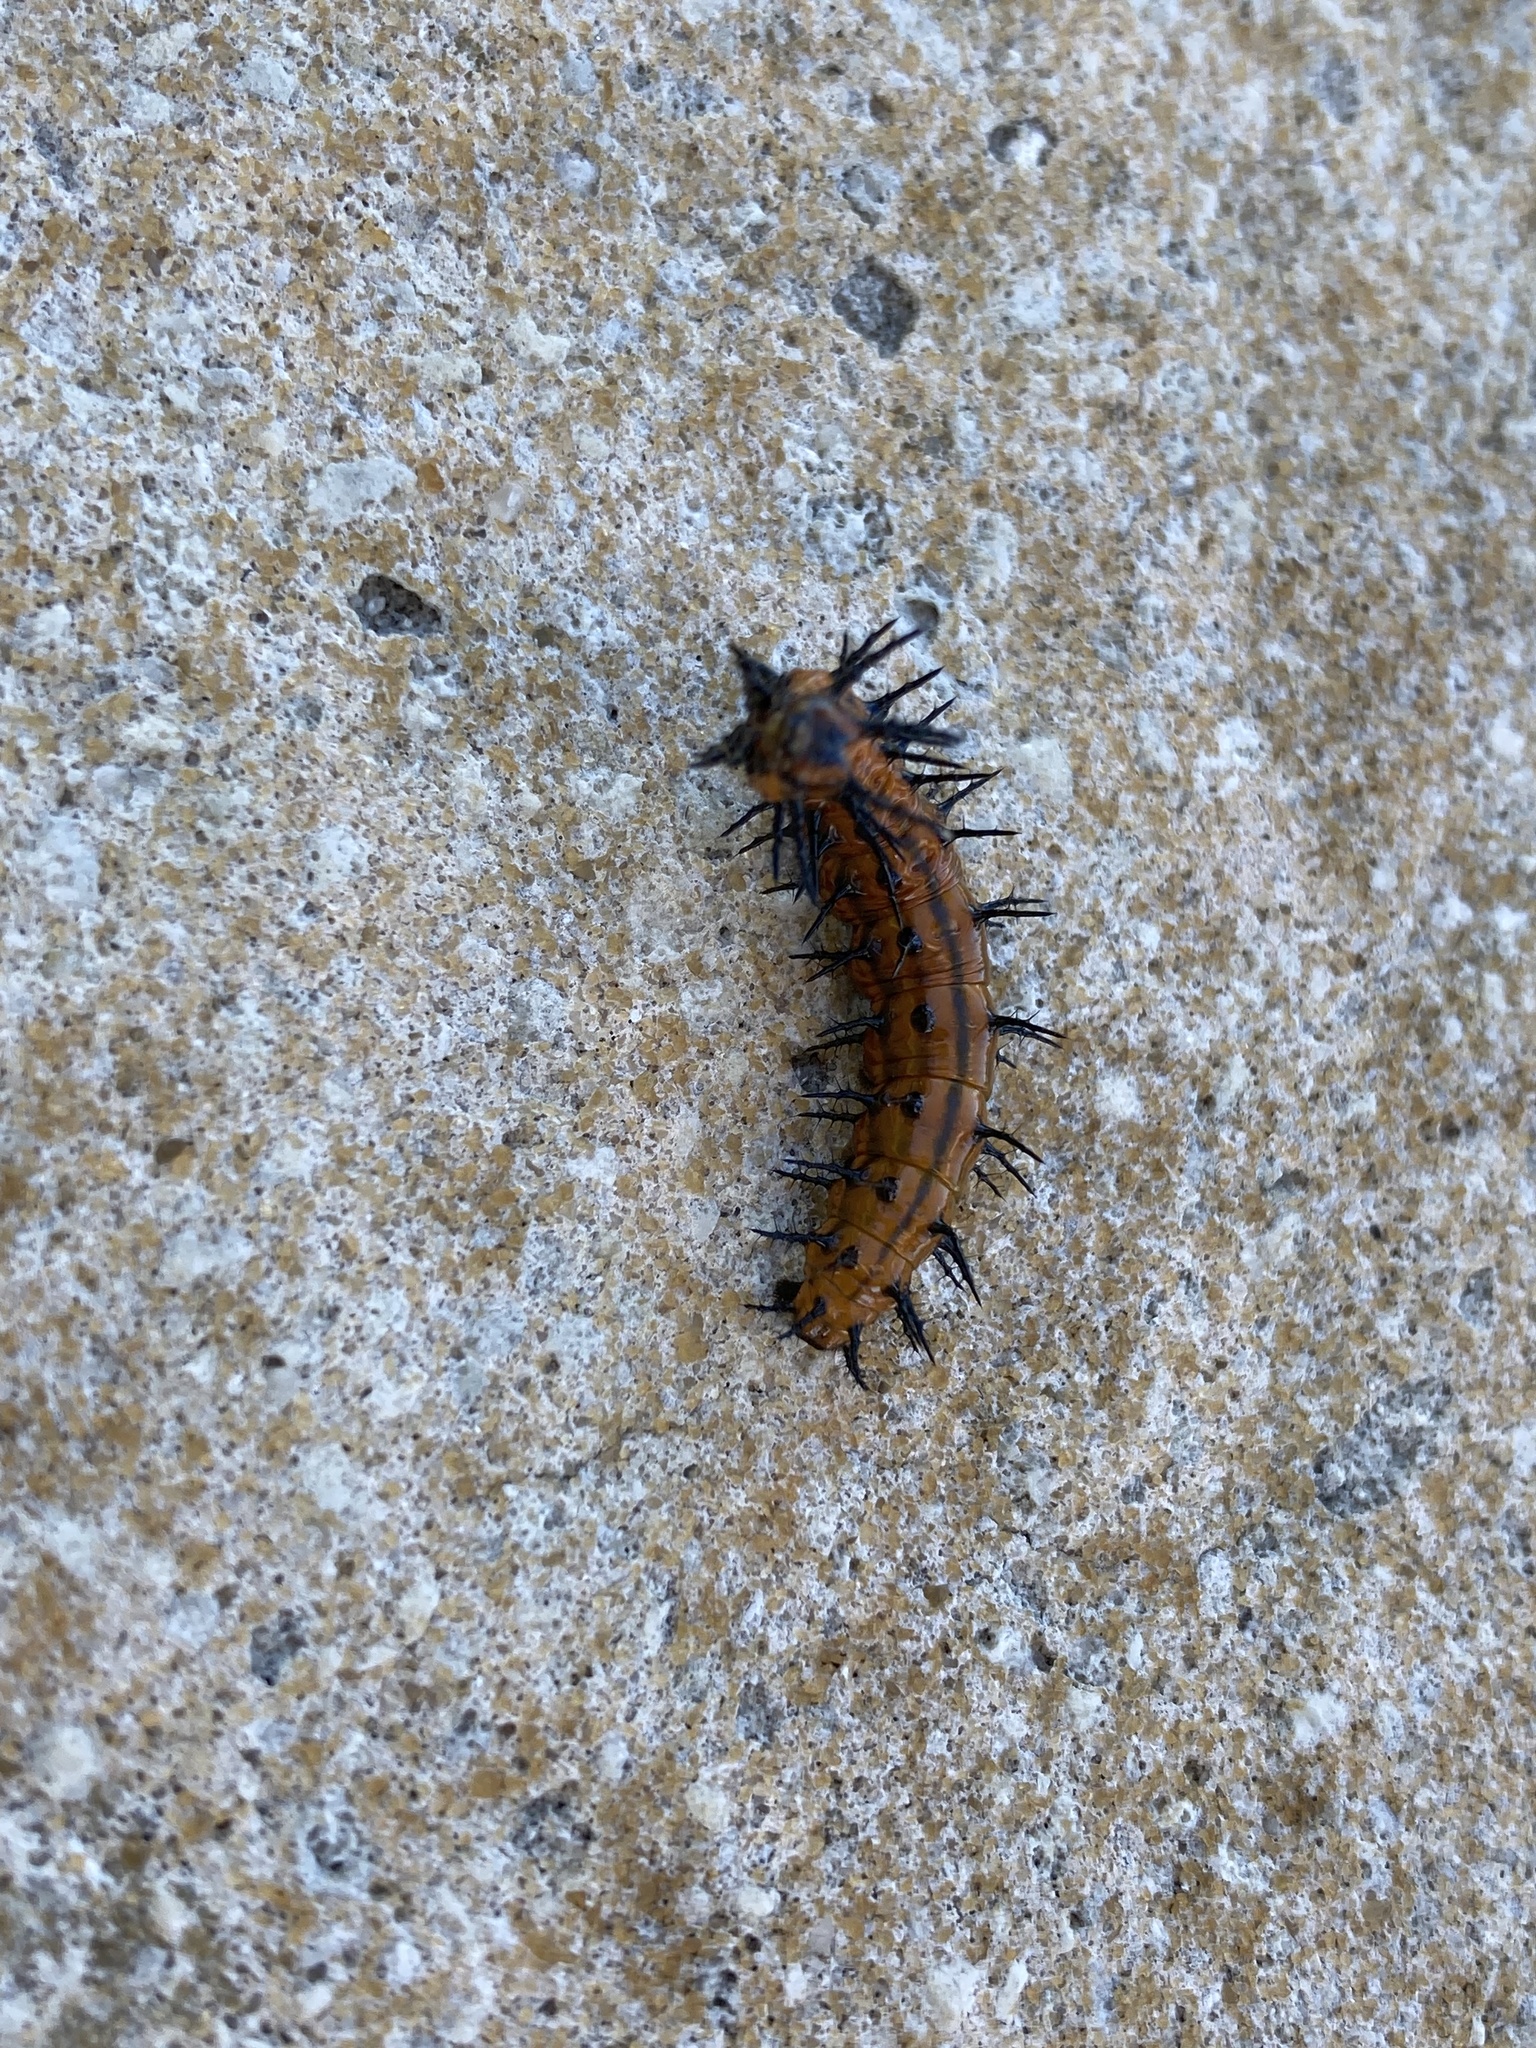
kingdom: Animalia
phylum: Arthropoda
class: Insecta
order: Lepidoptera
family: Nymphalidae
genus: Dione
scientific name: Dione vanillae
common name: Gulf fritillary
